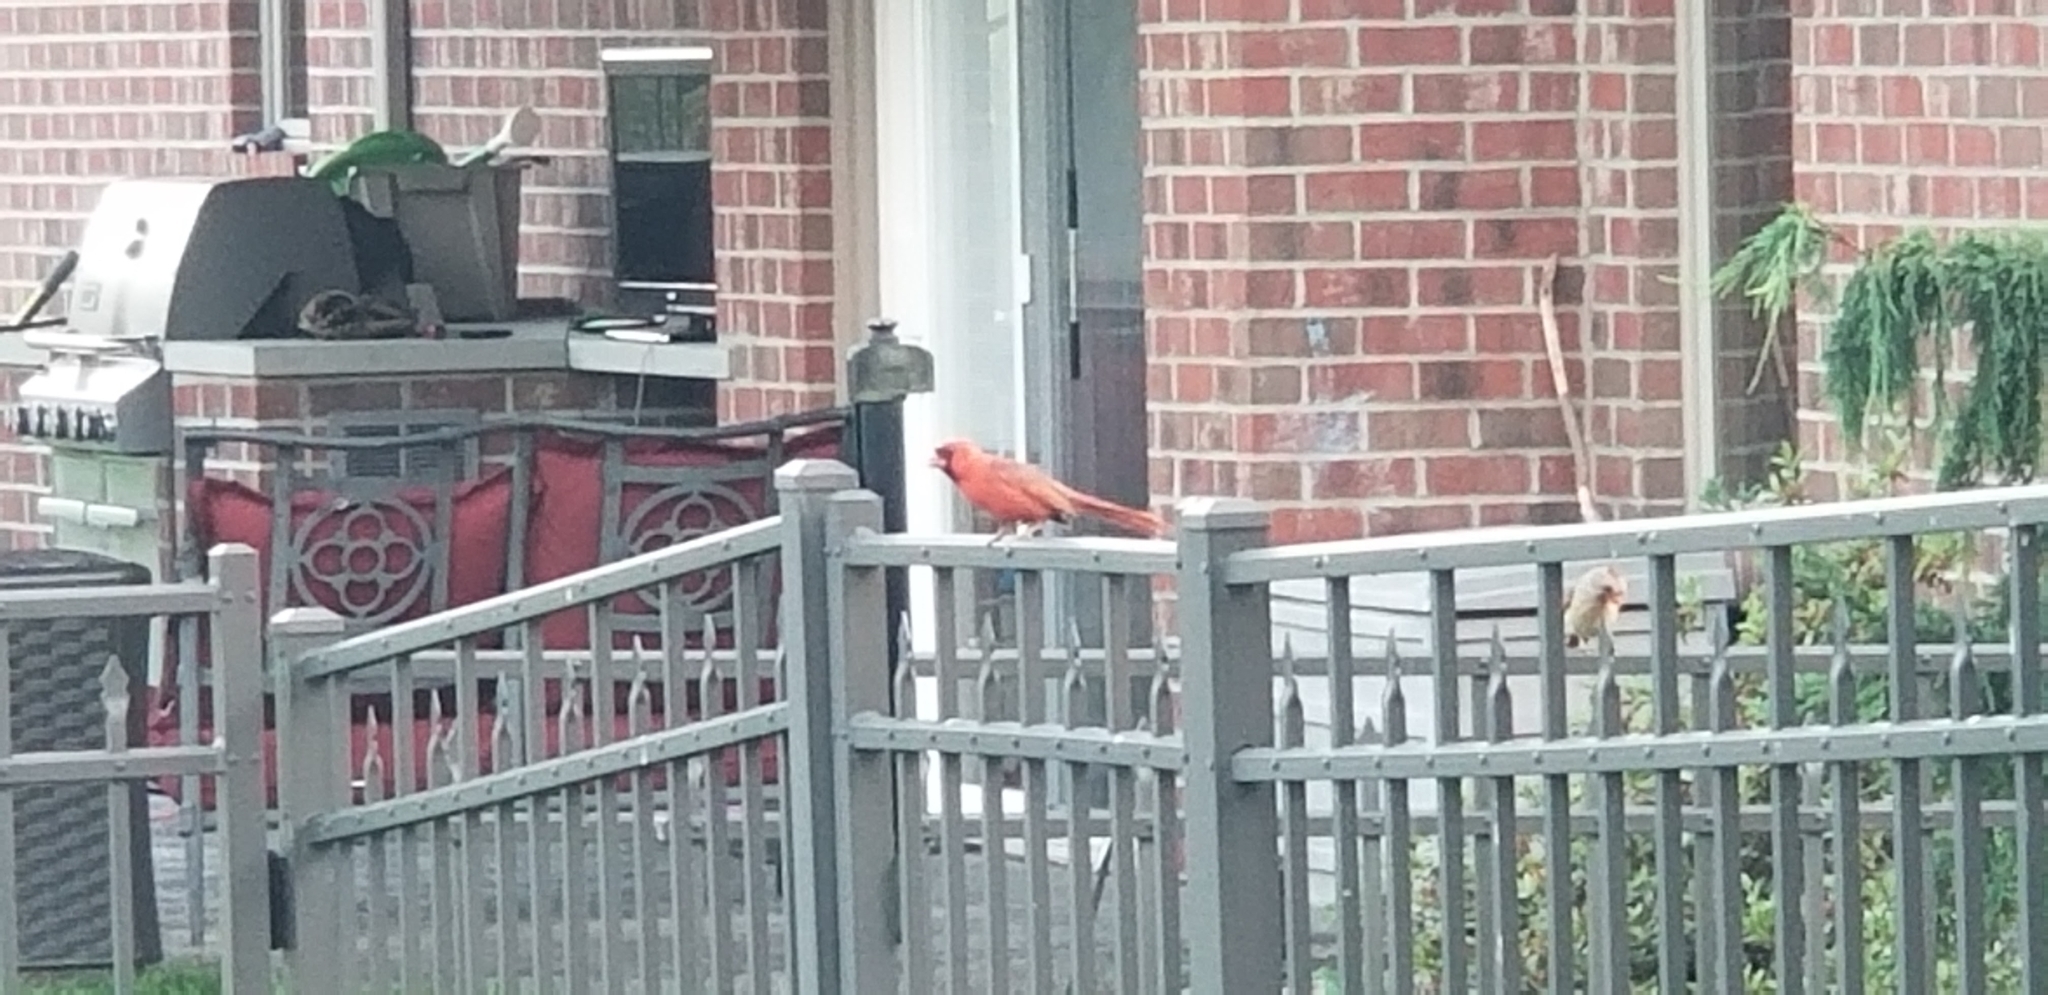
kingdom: Animalia
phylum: Chordata
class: Aves
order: Passeriformes
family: Cardinalidae
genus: Cardinalis
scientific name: Cardinalis cardinalis
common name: Northern cardinal
